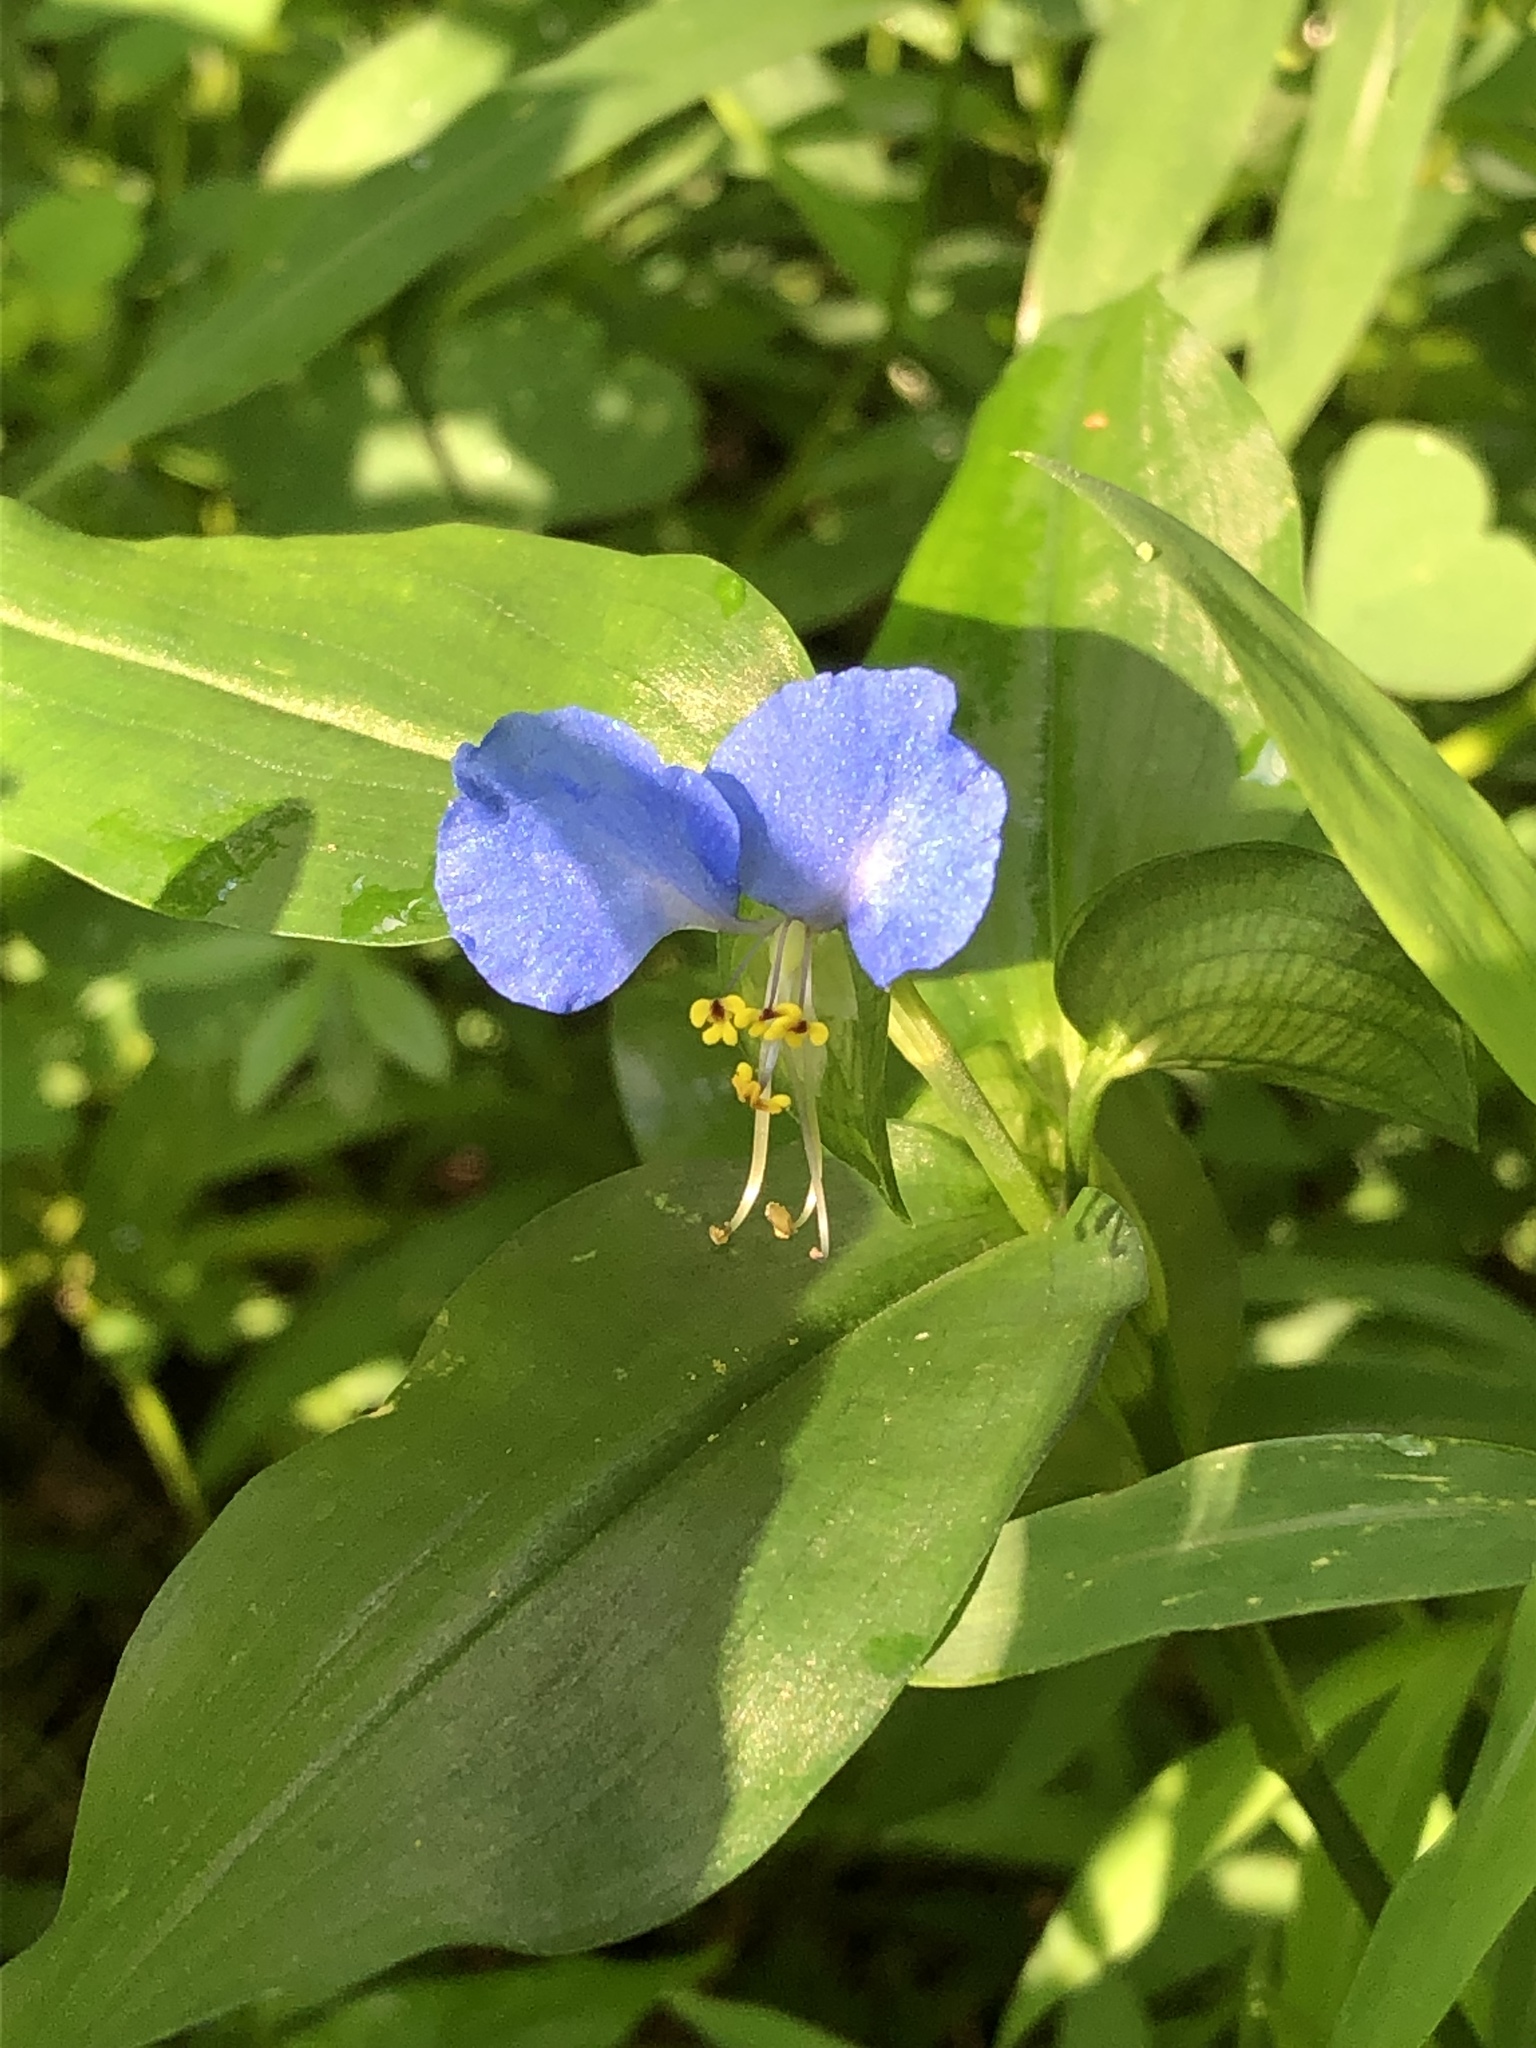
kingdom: Plantae
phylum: Tracheophyta
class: Liliopsida
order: Commelinales
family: Commelinaceae
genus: Commelina
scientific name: Commelina communis
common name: Asiatic dayflower
